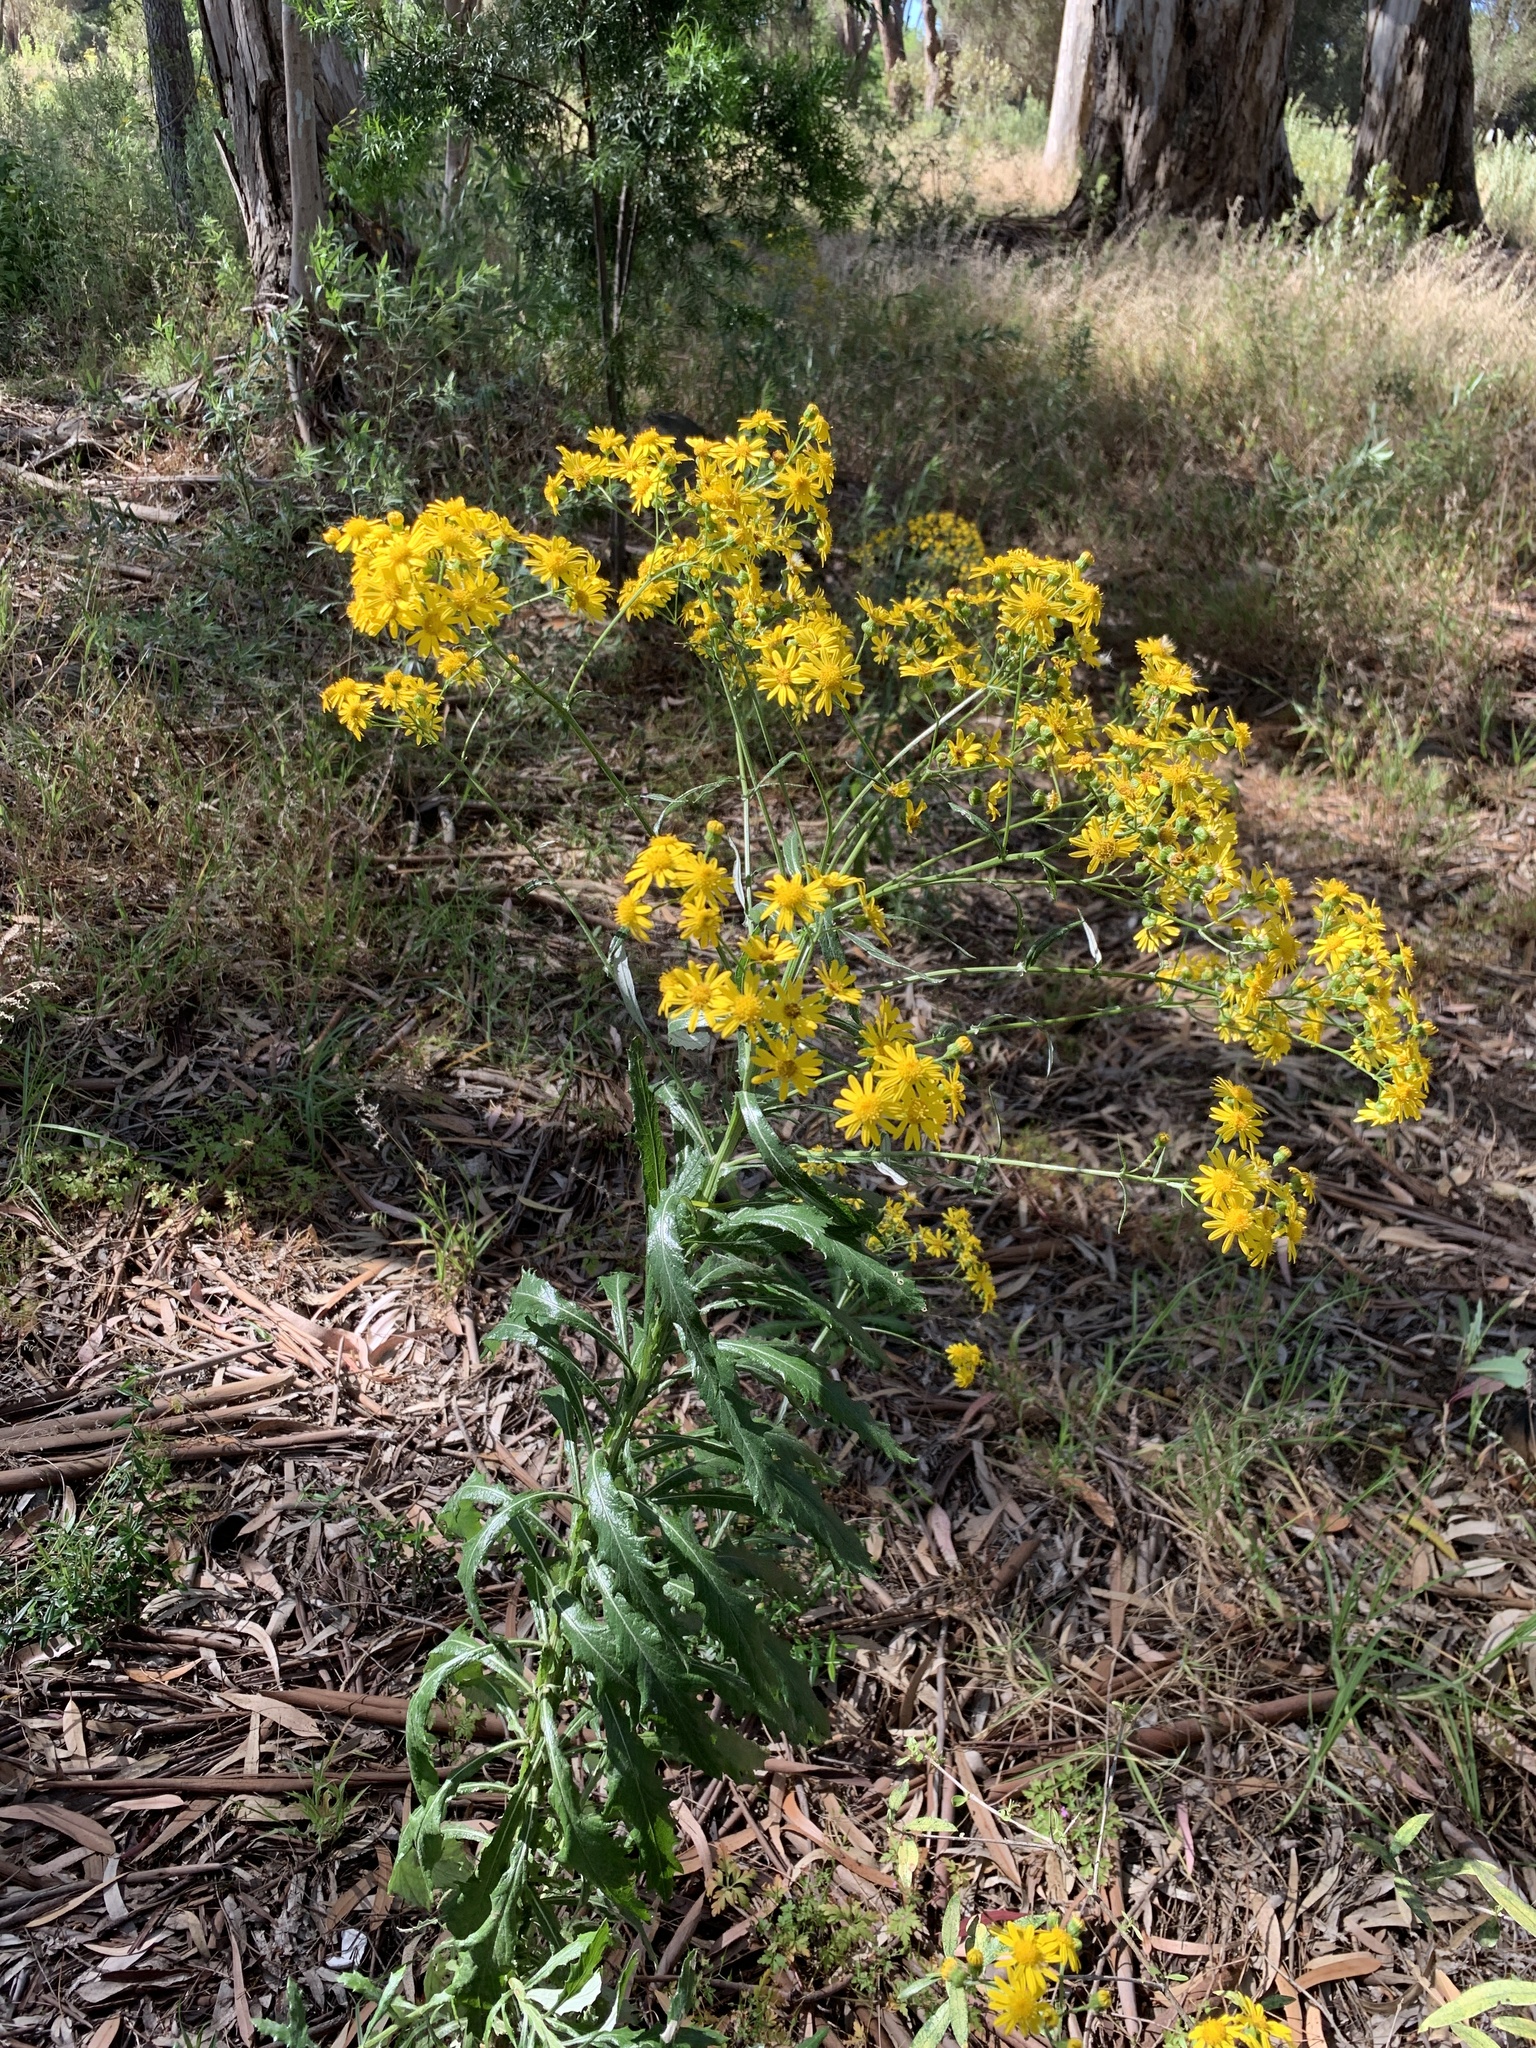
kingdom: Plantae
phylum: Tracheophyta
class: Magnoliopsida
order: Asterales
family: Asteraceae
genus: Senecio
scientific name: Senecio pterophorus
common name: Shoddy ragwort
